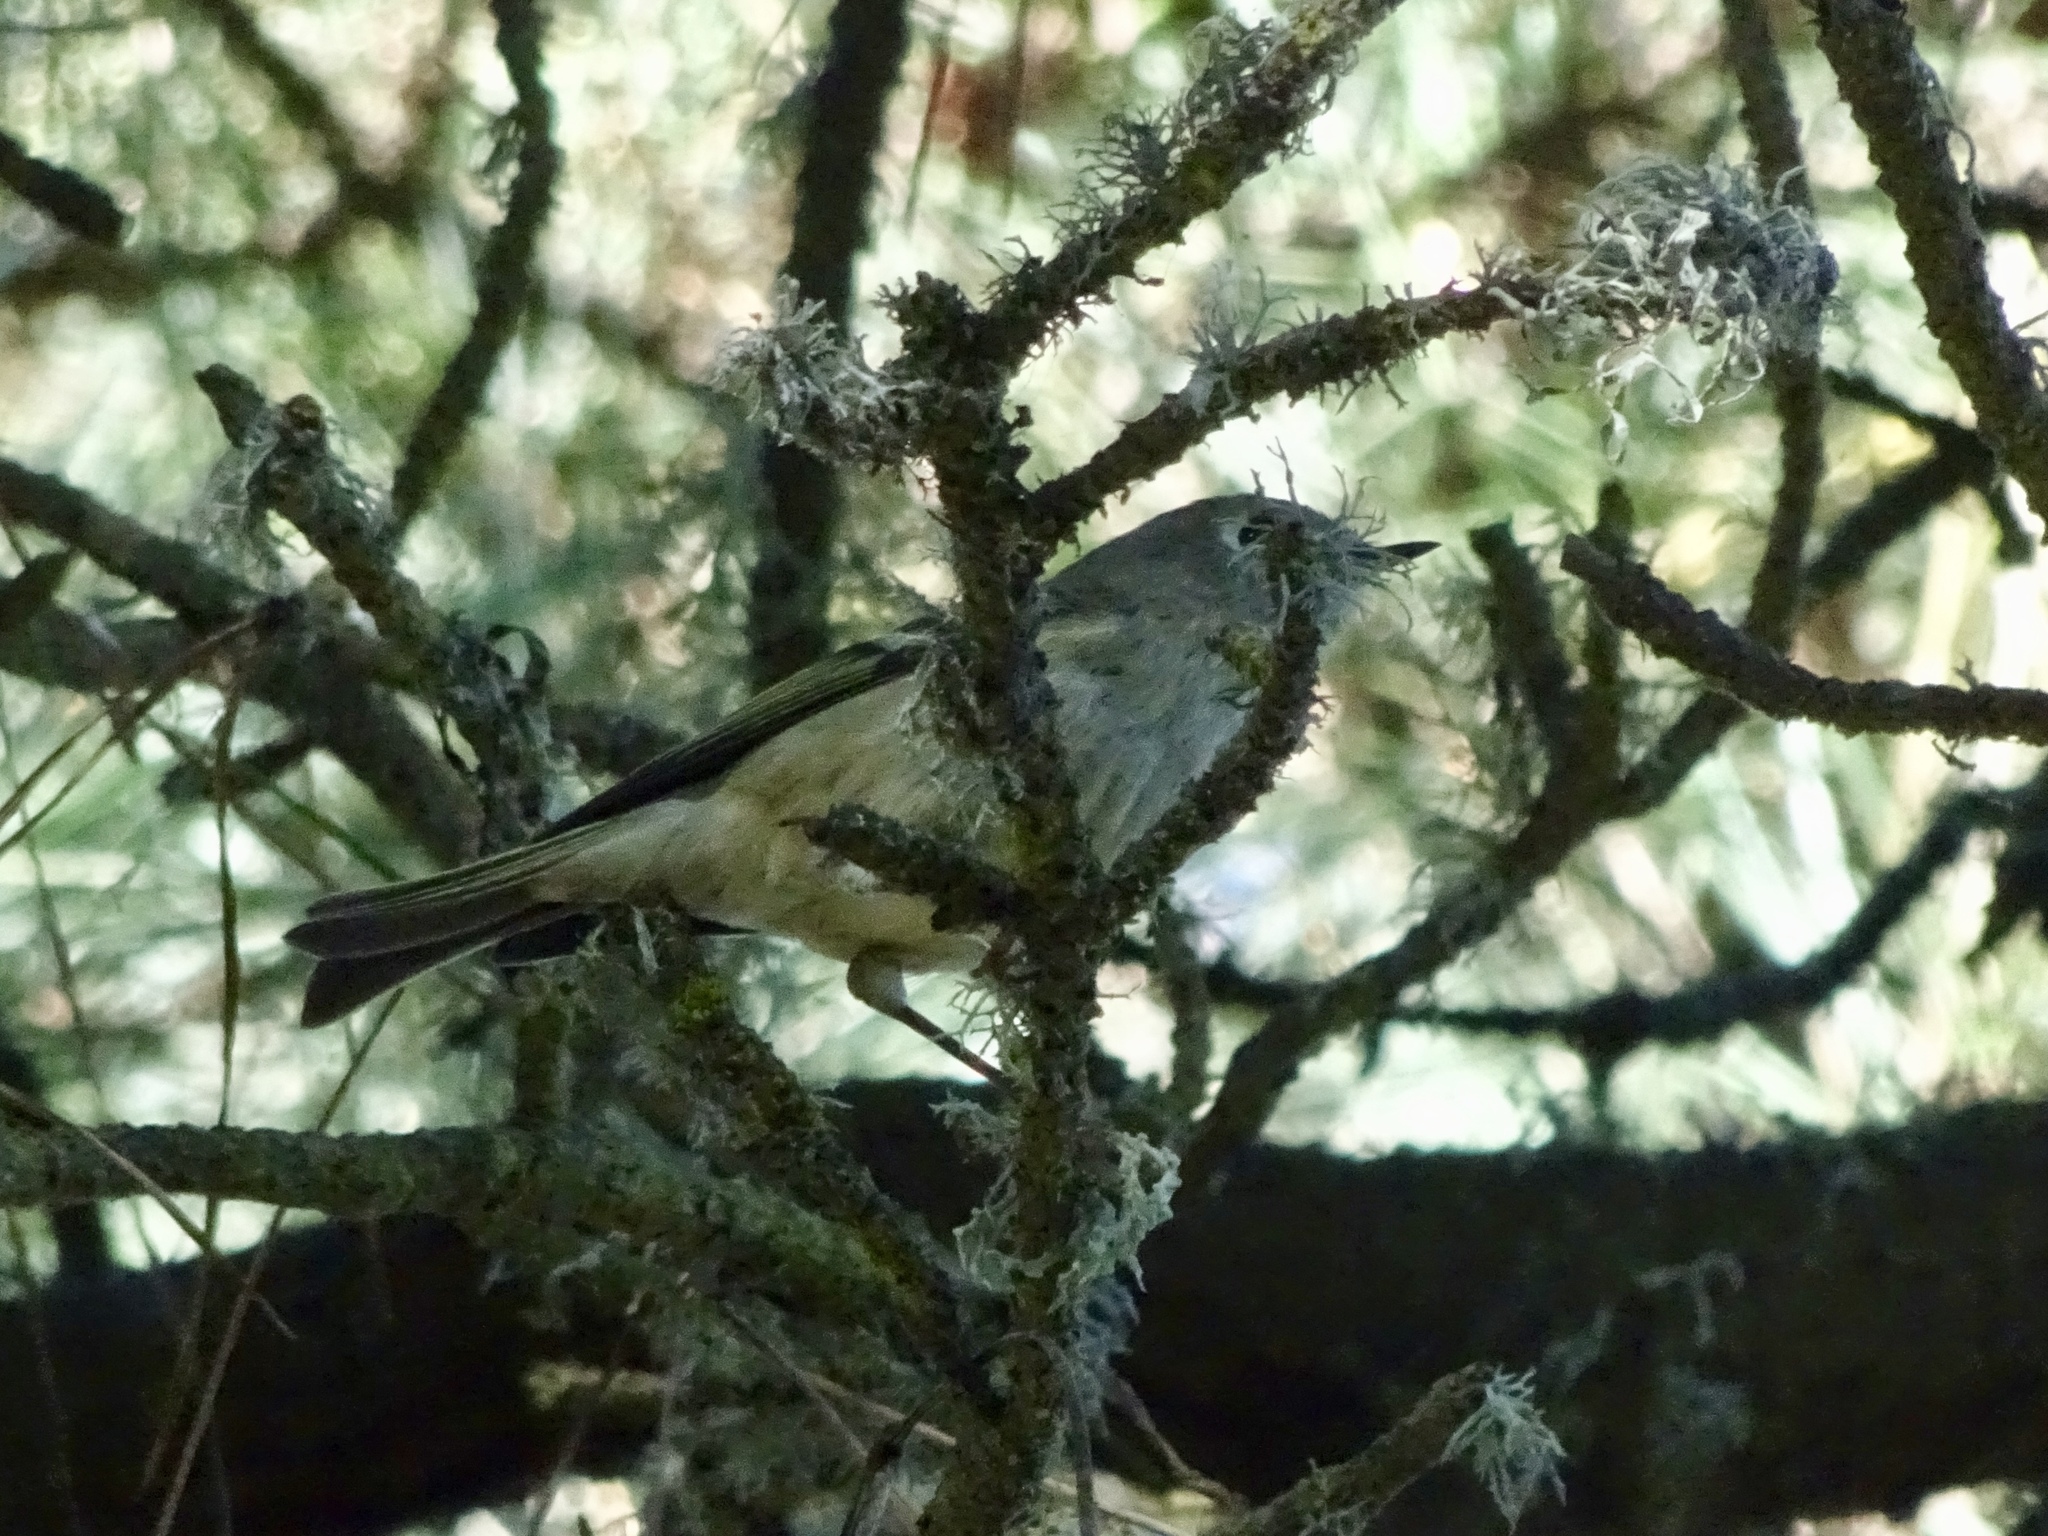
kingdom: Animalia
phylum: Chordata
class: Aves
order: Passeriformes
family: Regulidae
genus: Regulus
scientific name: Regulus calendula
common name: Ruby-crowned kinglet
